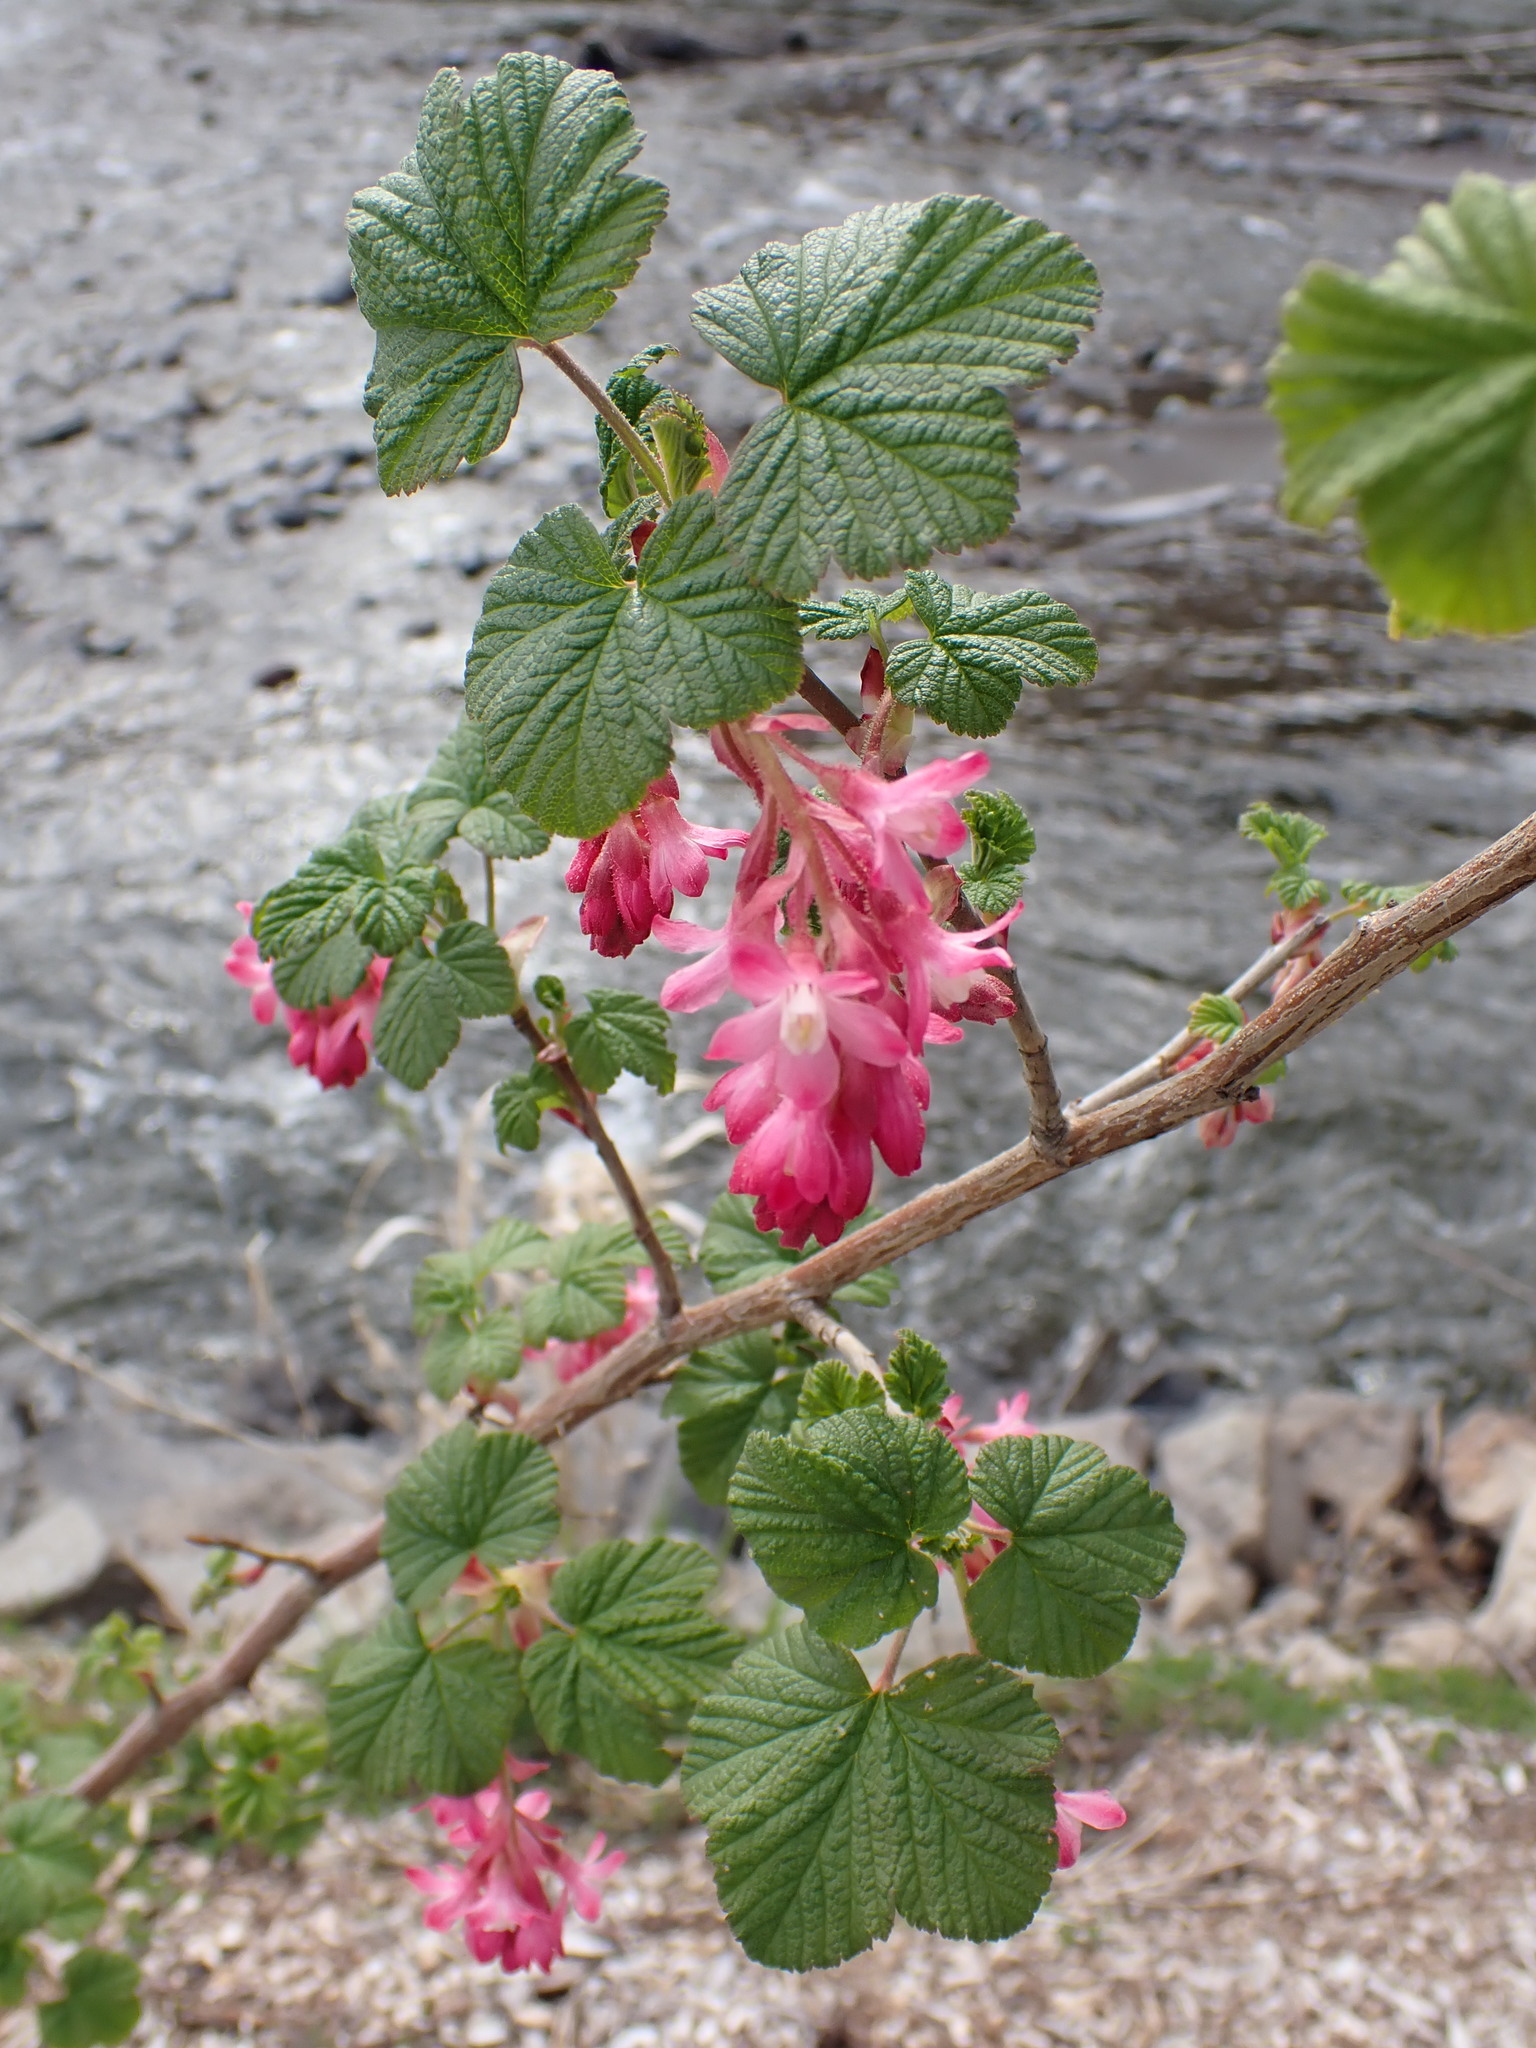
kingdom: Plantae
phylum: Tracheophyta
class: Magnoliopsida
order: Saxifragales
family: Grossulariaceae
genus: Ribes
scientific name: Ribes sanguineum
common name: Flowering currant
